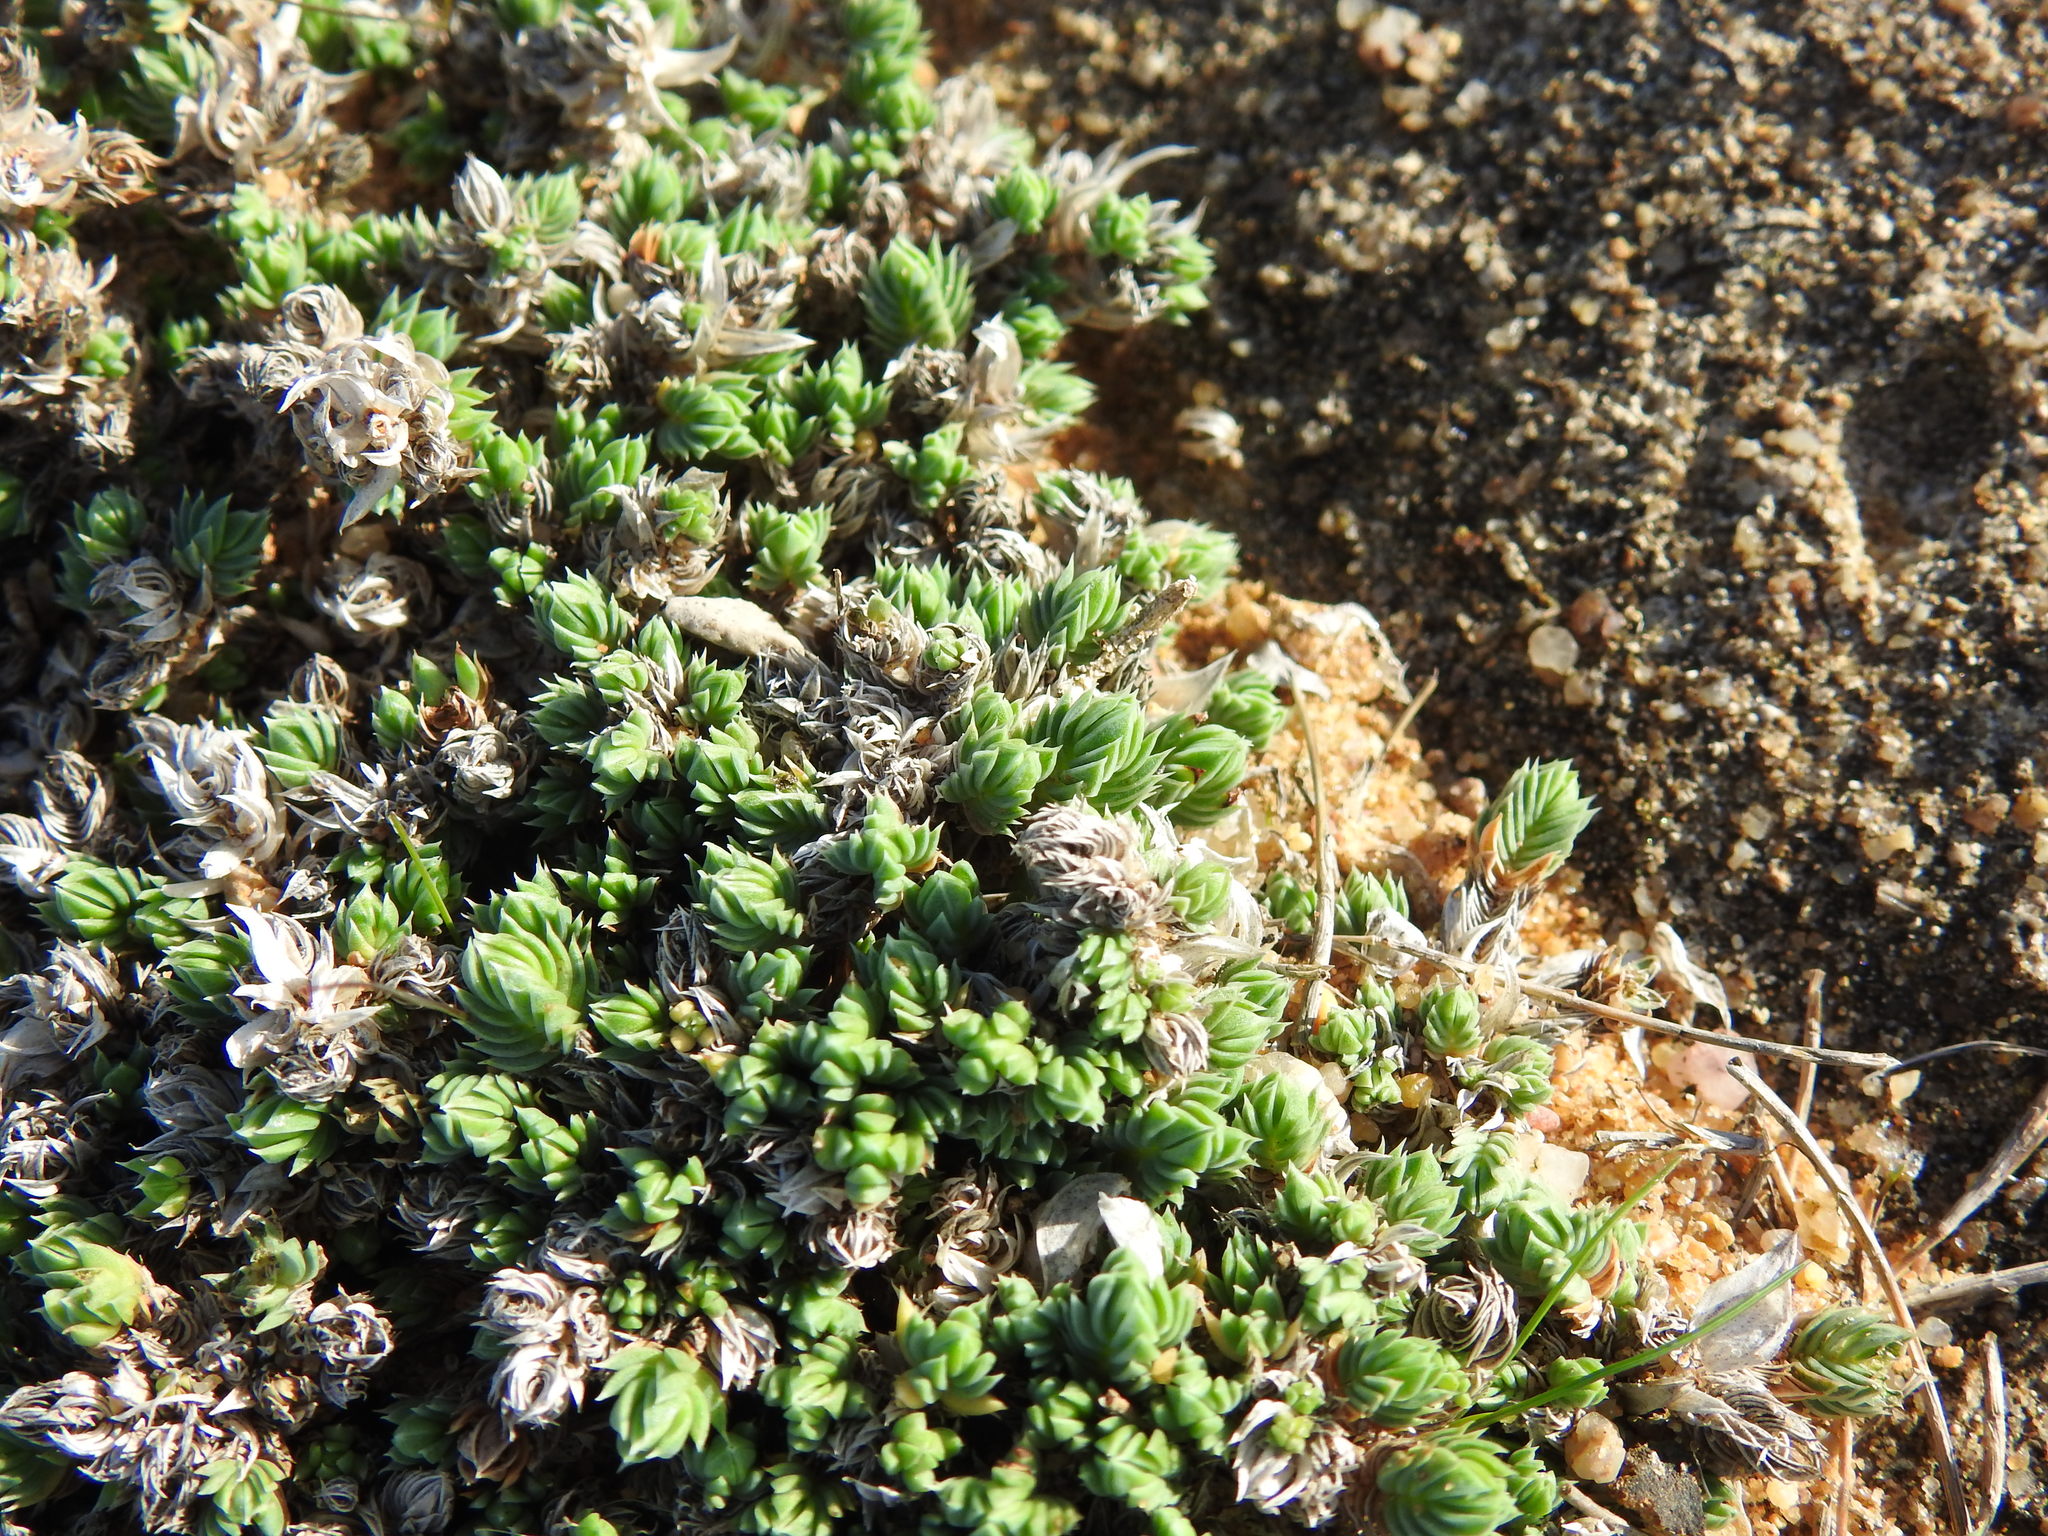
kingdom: Plantae
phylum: Tracheophyta
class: Magnoliopsida
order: Gentianales
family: Rubiaceae
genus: Crucianella
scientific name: Crucianella maritima
